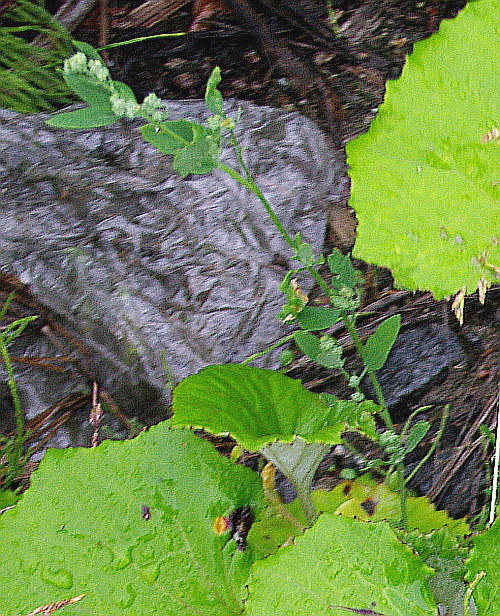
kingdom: Plantae
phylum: Tracheophyta
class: Magnoliopsida
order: Caryophyllales
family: Amaranthaceae
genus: Chenopodium
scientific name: Chenopodium album
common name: Fat-hen
